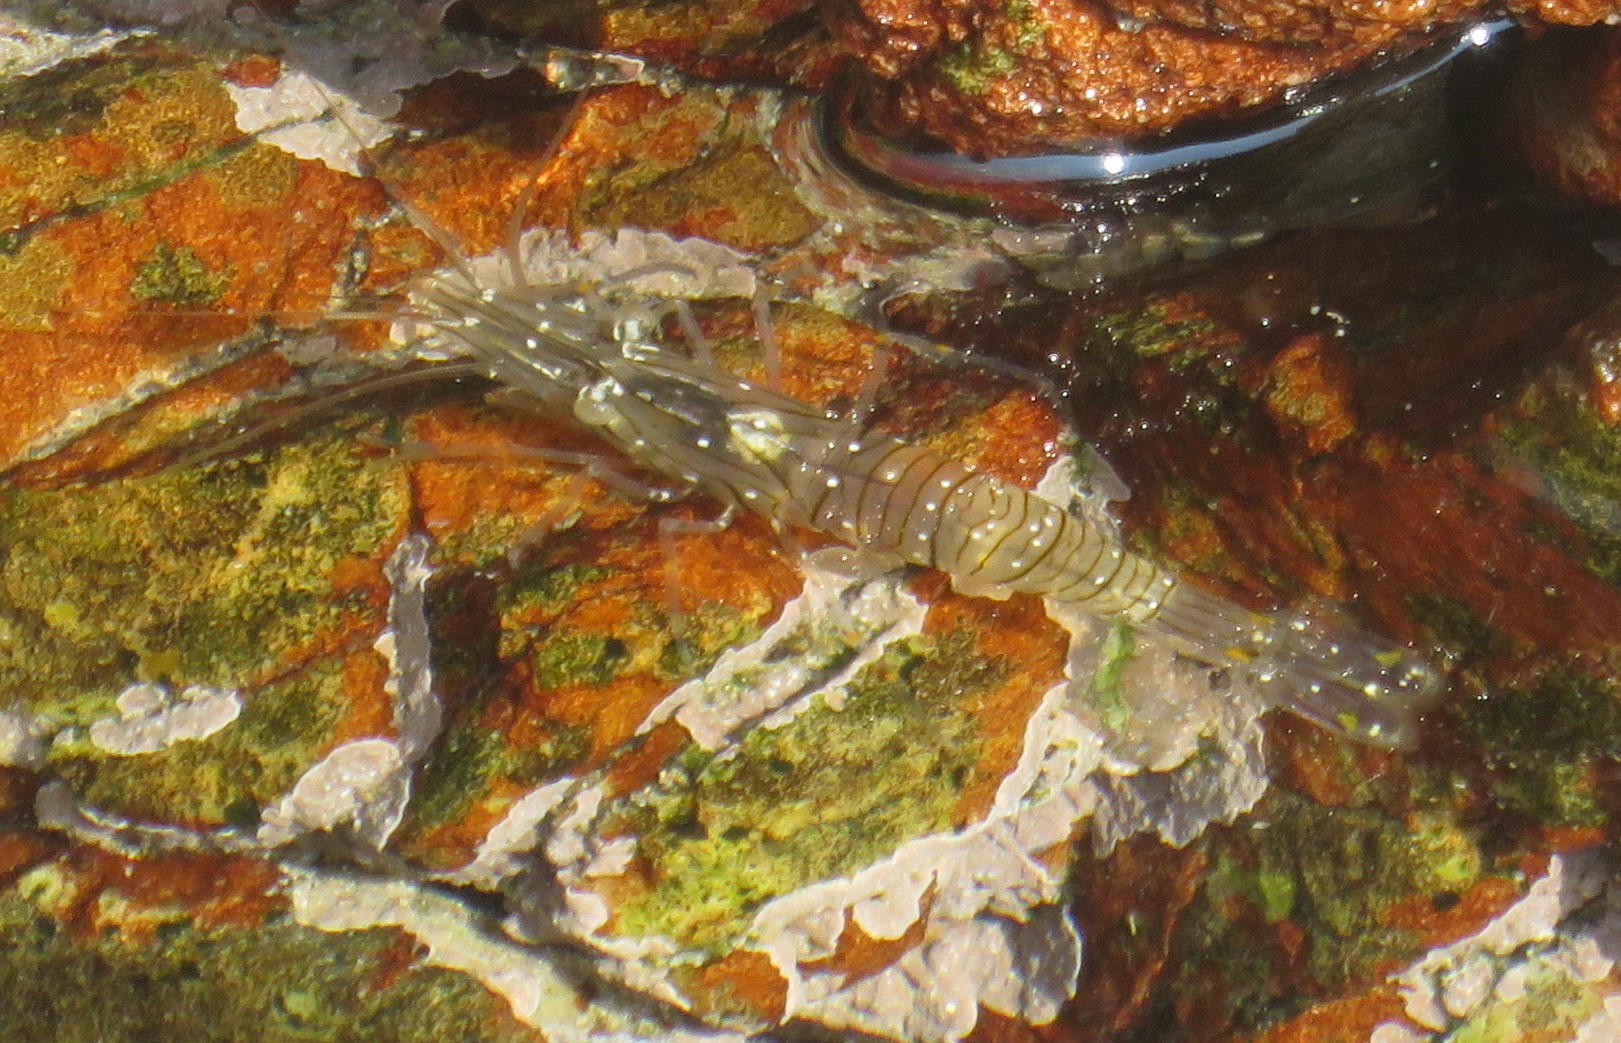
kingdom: Animalia
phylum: Arthropoda
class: Malacostraca
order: Decapoda
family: Palaemonidae
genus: Palaemon
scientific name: Palaemon peringueyi
